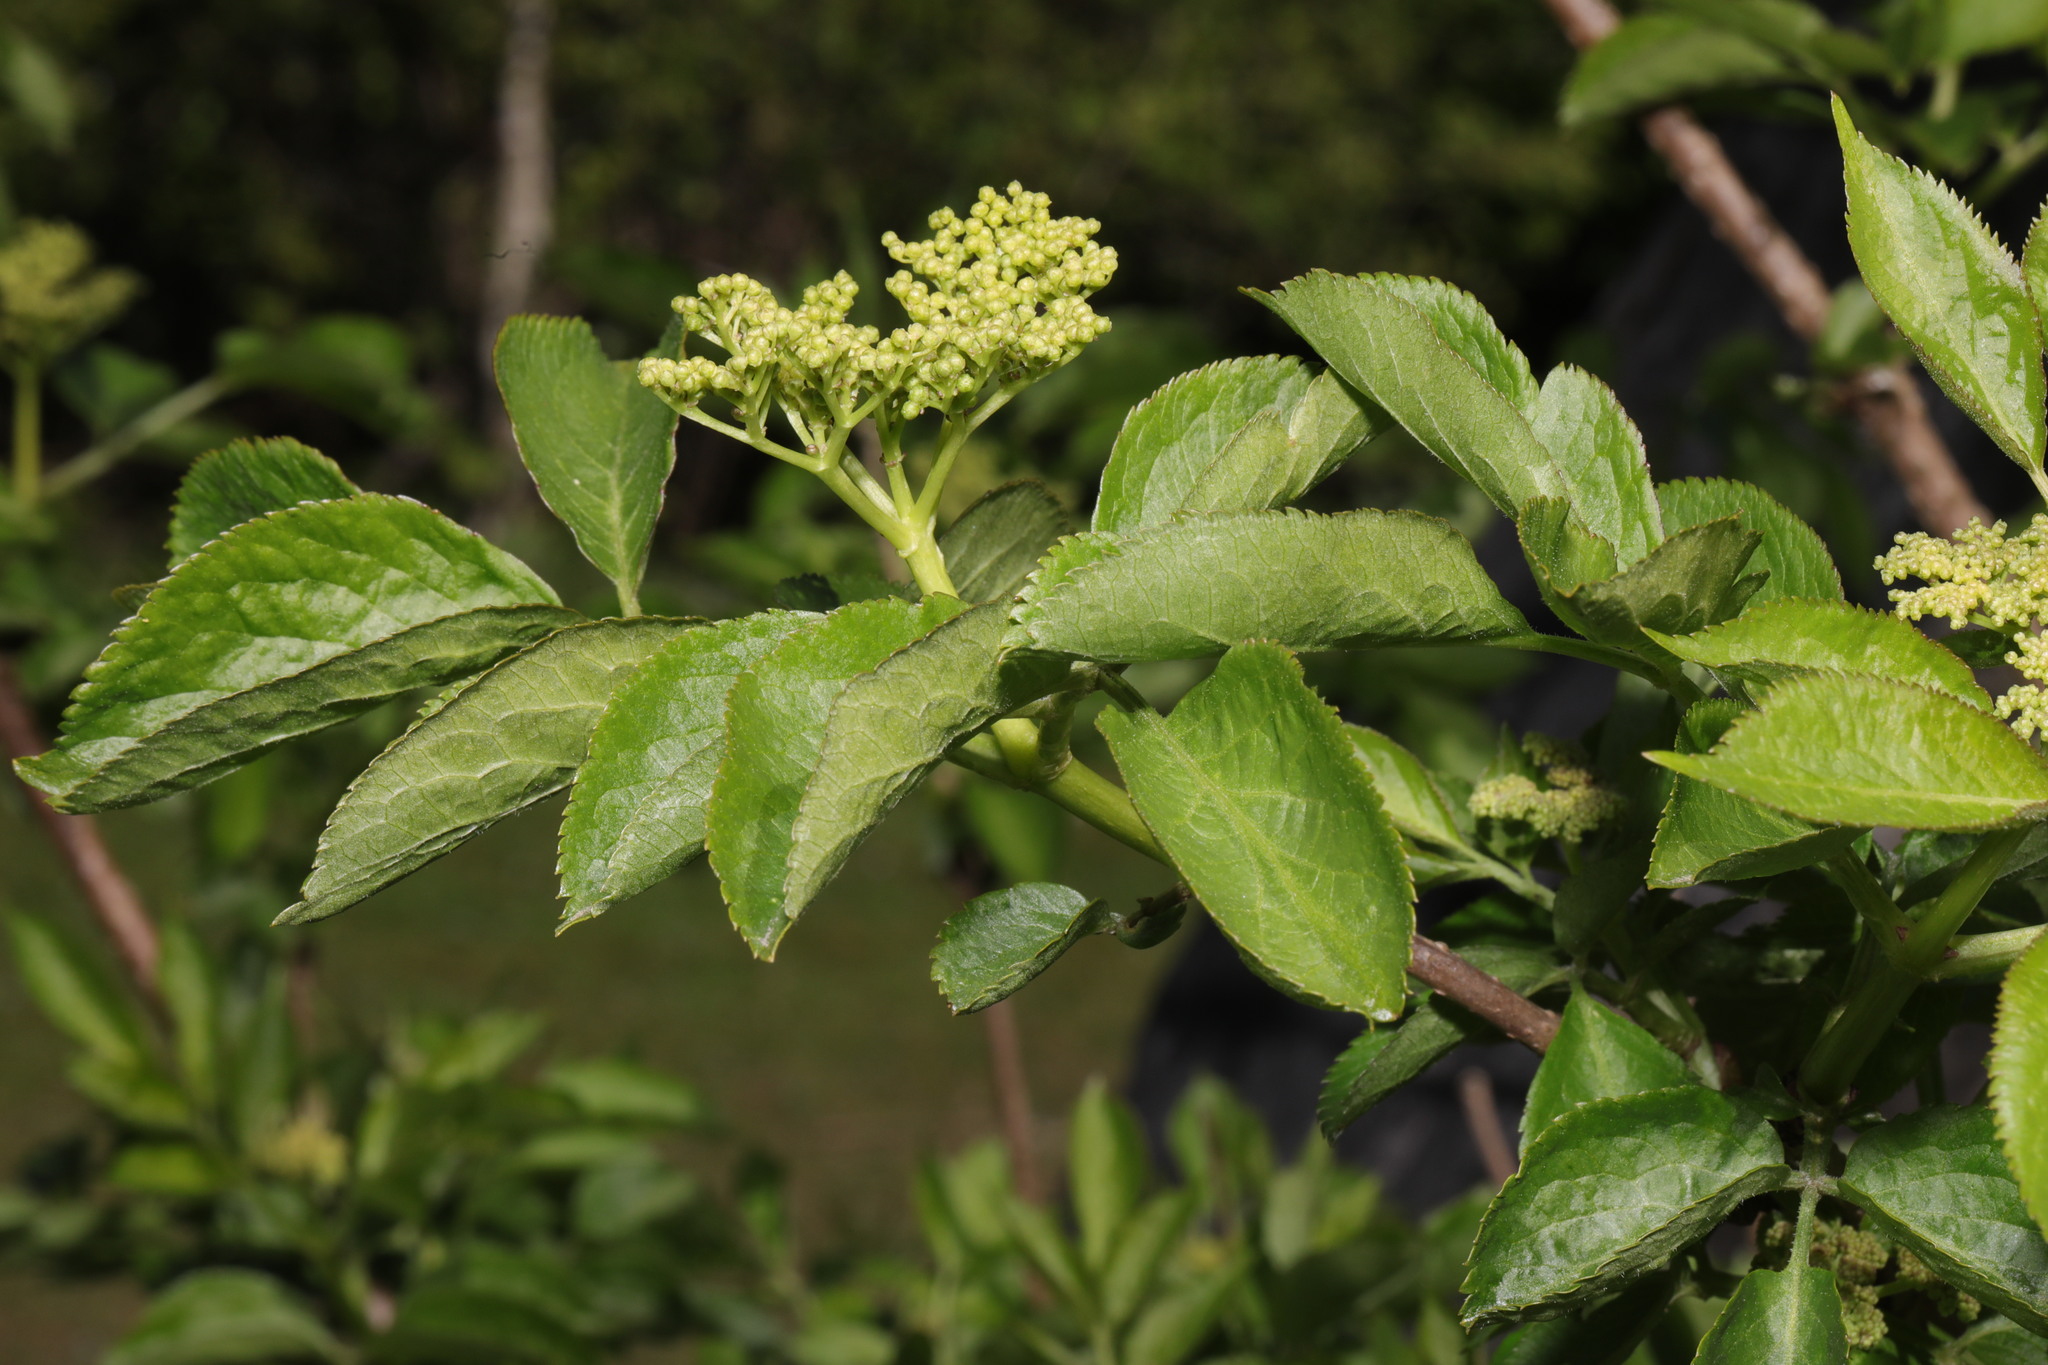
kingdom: Plantae
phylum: Tracheophyta
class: Magnoliopsida
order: Dipsacales
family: Viburnaceae
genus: Sambucus
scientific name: Sambucus nigra
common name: Elder
